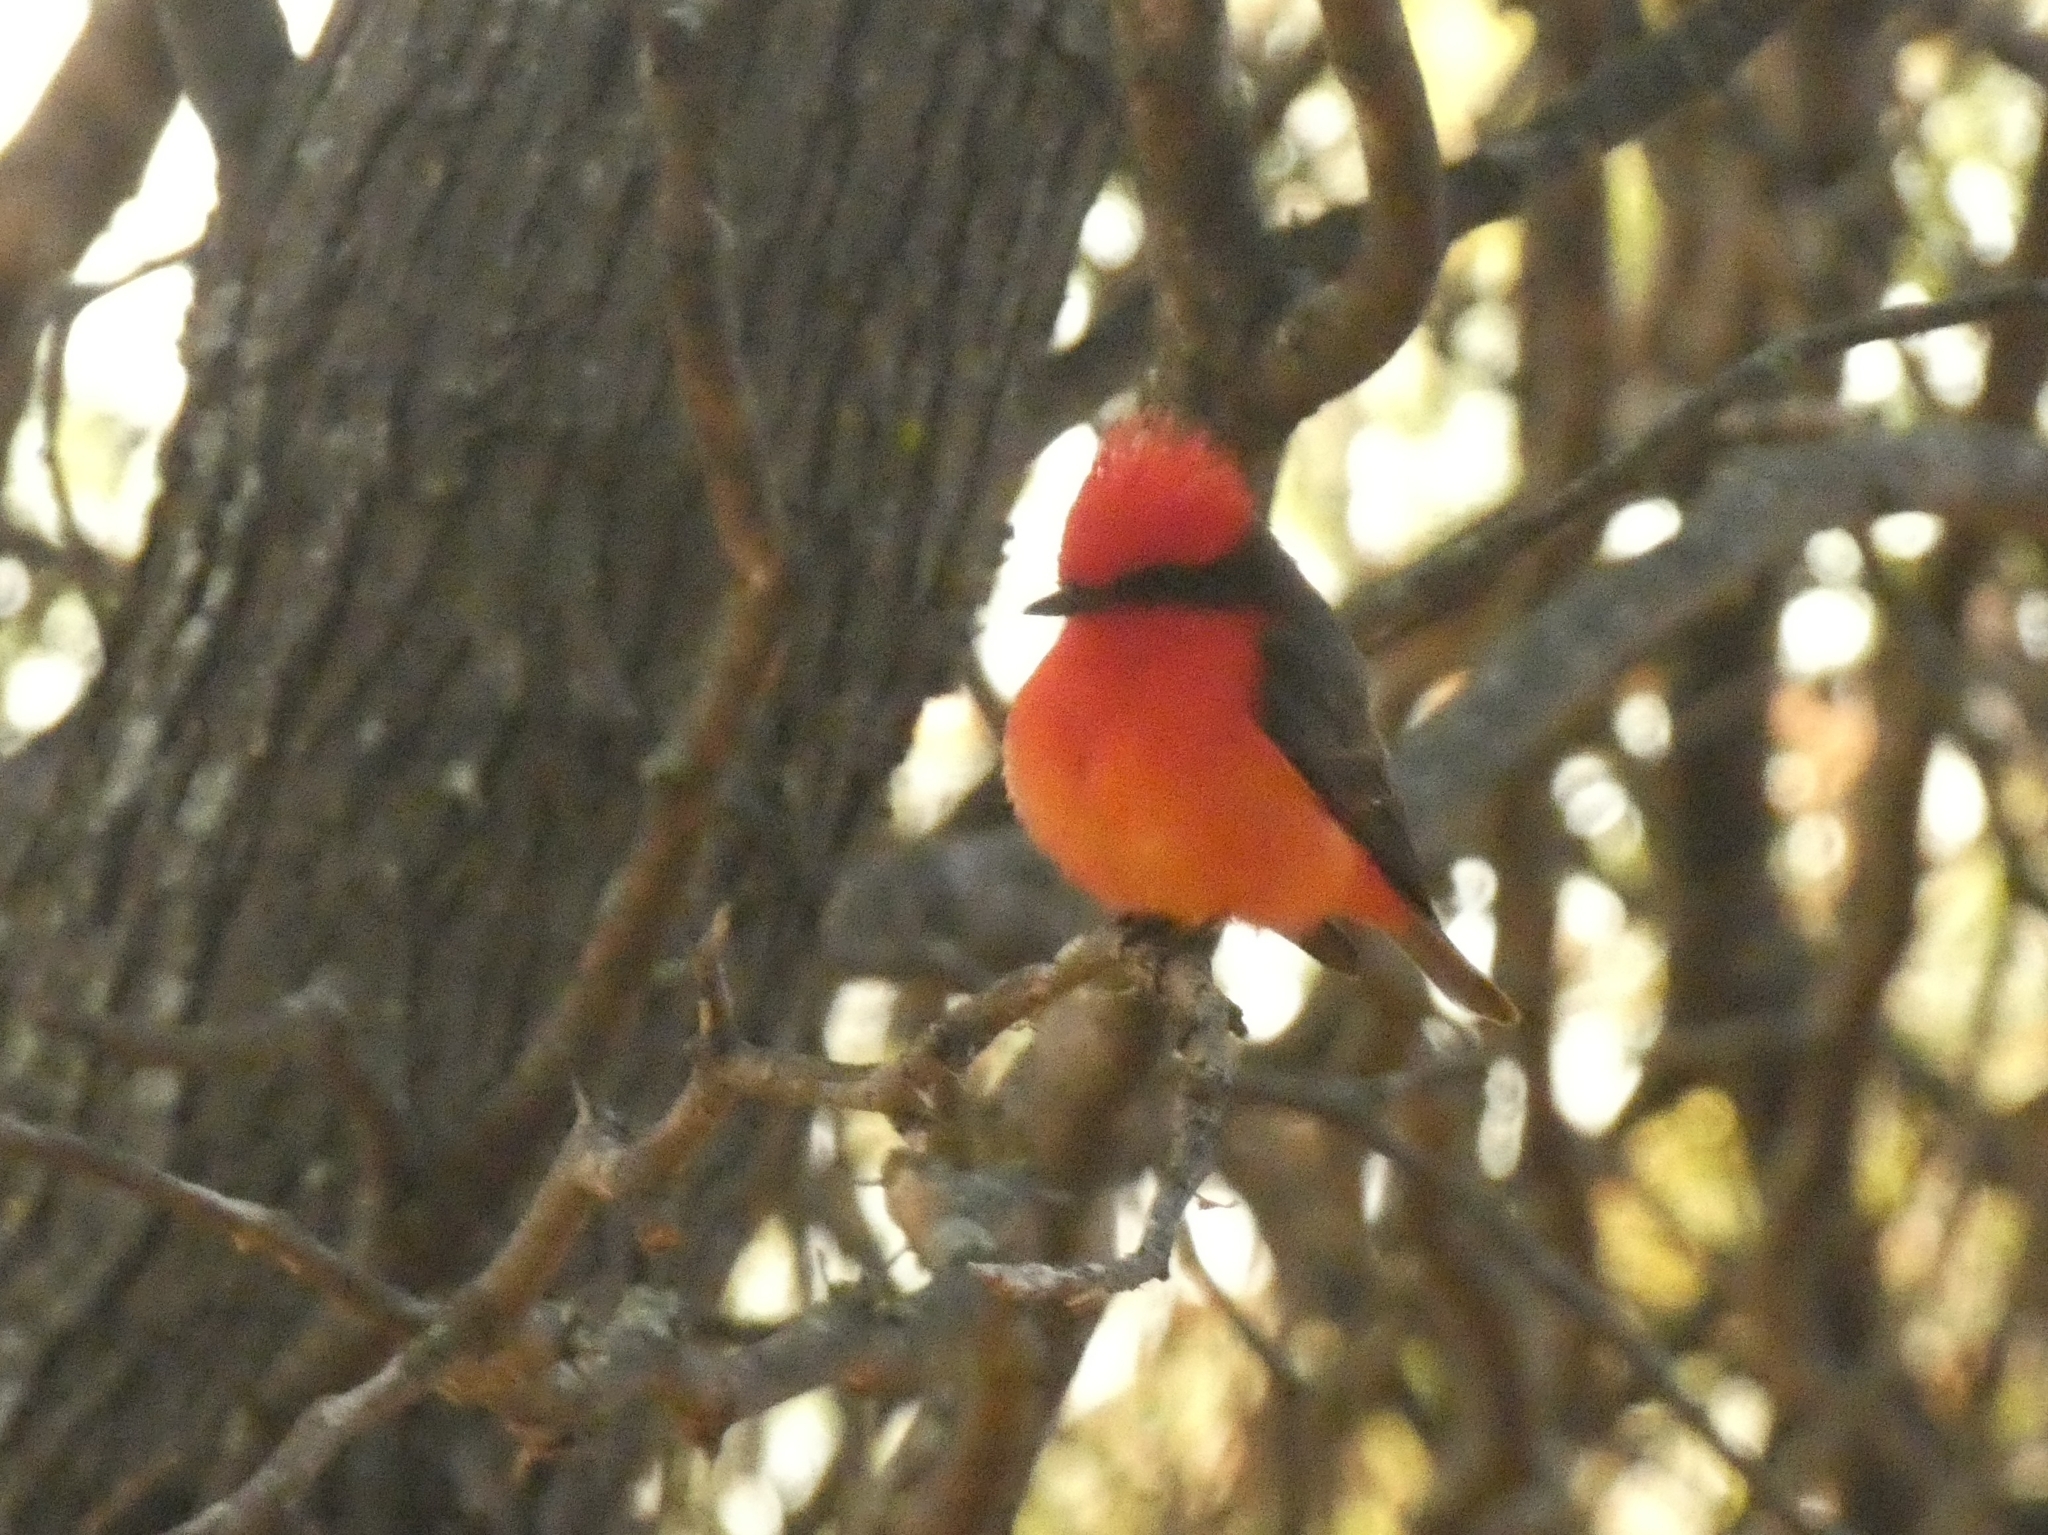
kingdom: Animalia
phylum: Chordata
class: Aves
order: Passeriformes
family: Tyrannidae
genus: Pyrocephalus
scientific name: Pyrocephalus rubinus
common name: Vermilion flycatcher
